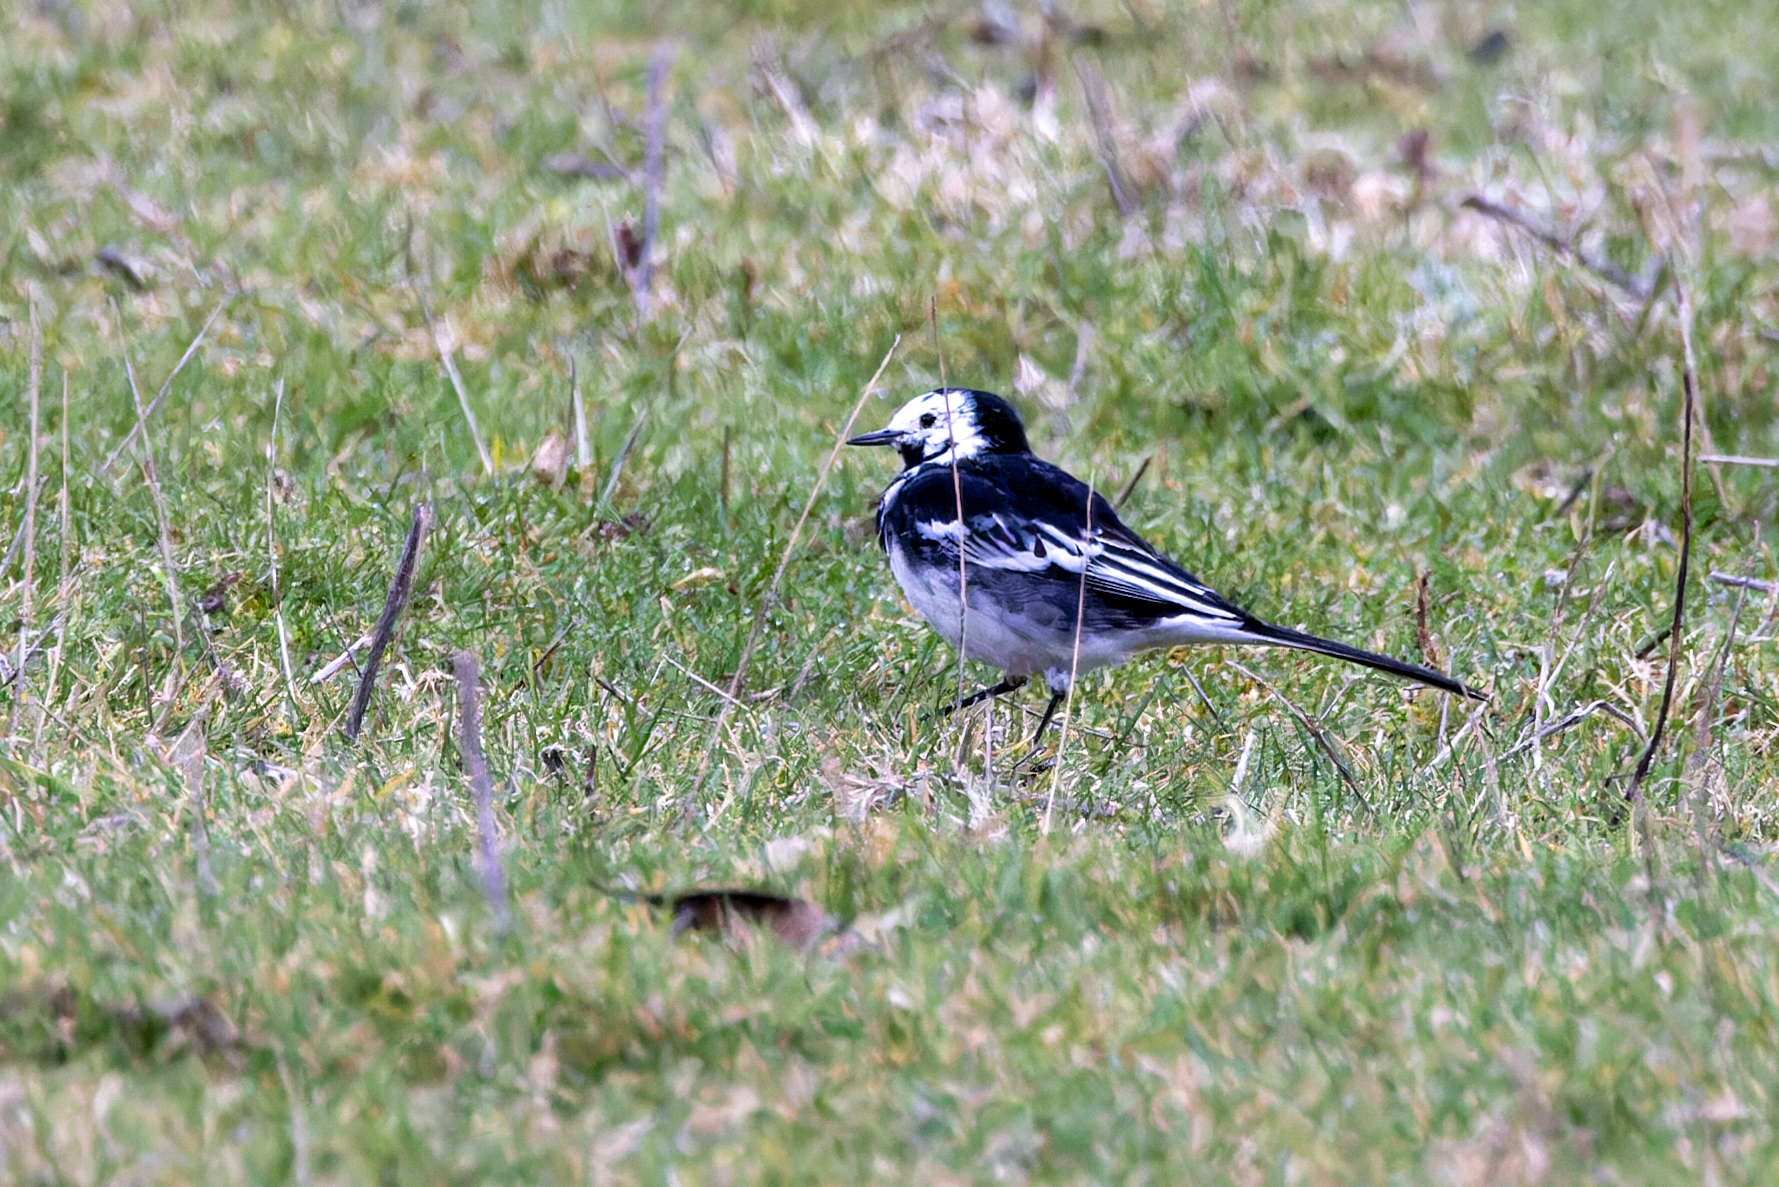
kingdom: Animalia
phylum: Chordata
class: Aves
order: Passeriformes
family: Motacillidae
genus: Motacilla
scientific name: Motacilla alba
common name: White wagtail
